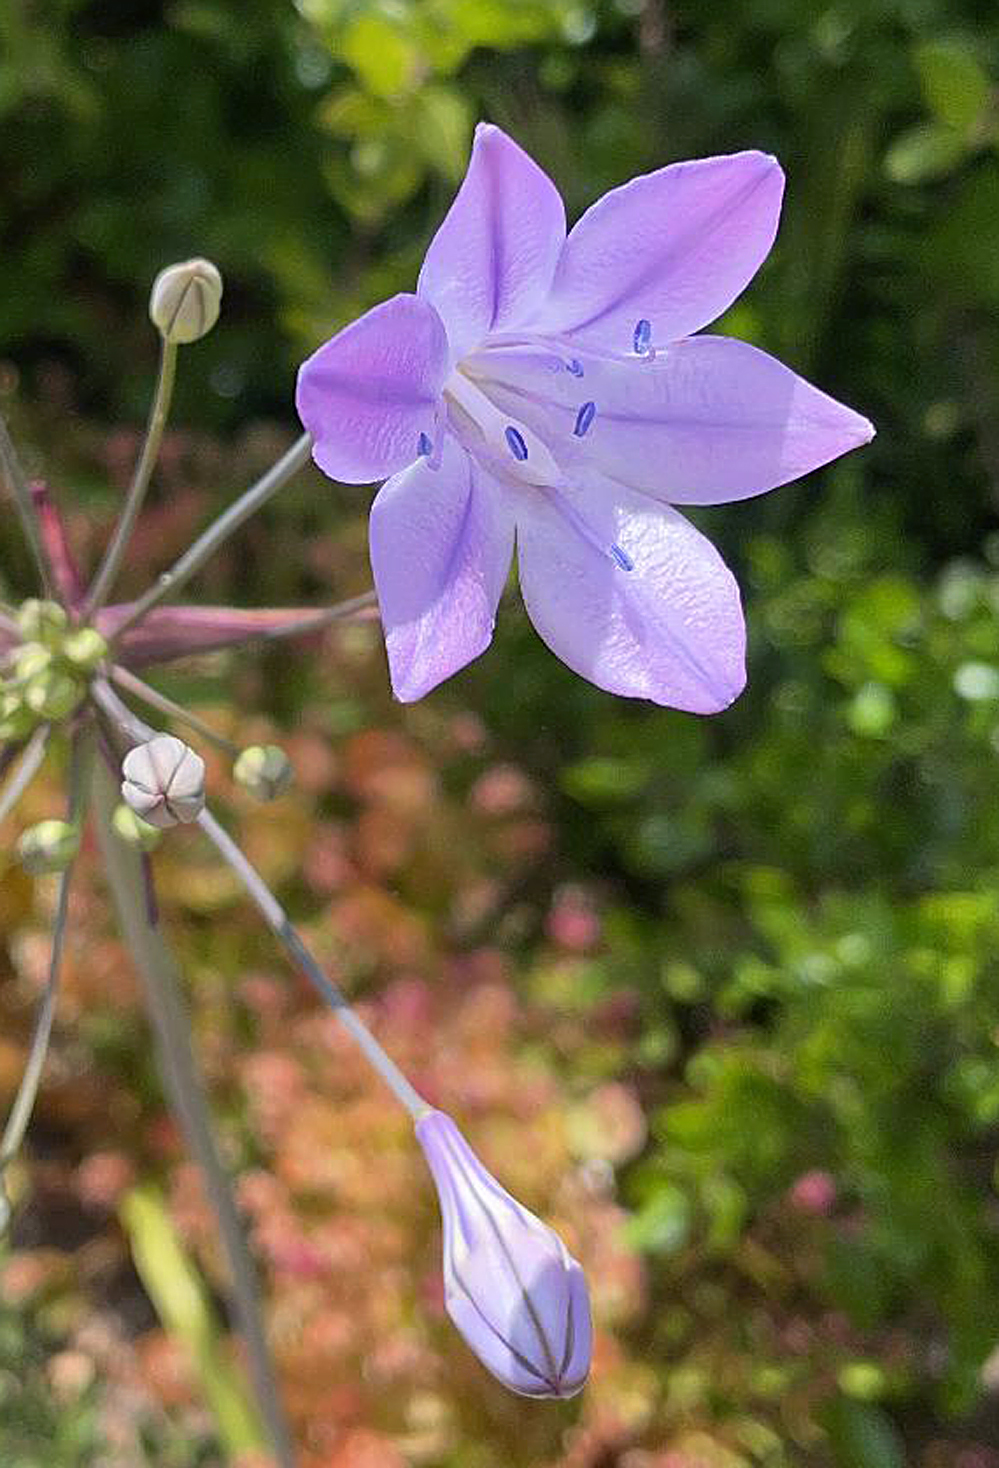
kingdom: Plantae
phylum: Tracheophyta
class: Liliopsida
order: Asparagales
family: Asparagaceae
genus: Triteleia
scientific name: Triteleia laxa
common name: Triplet-lily
